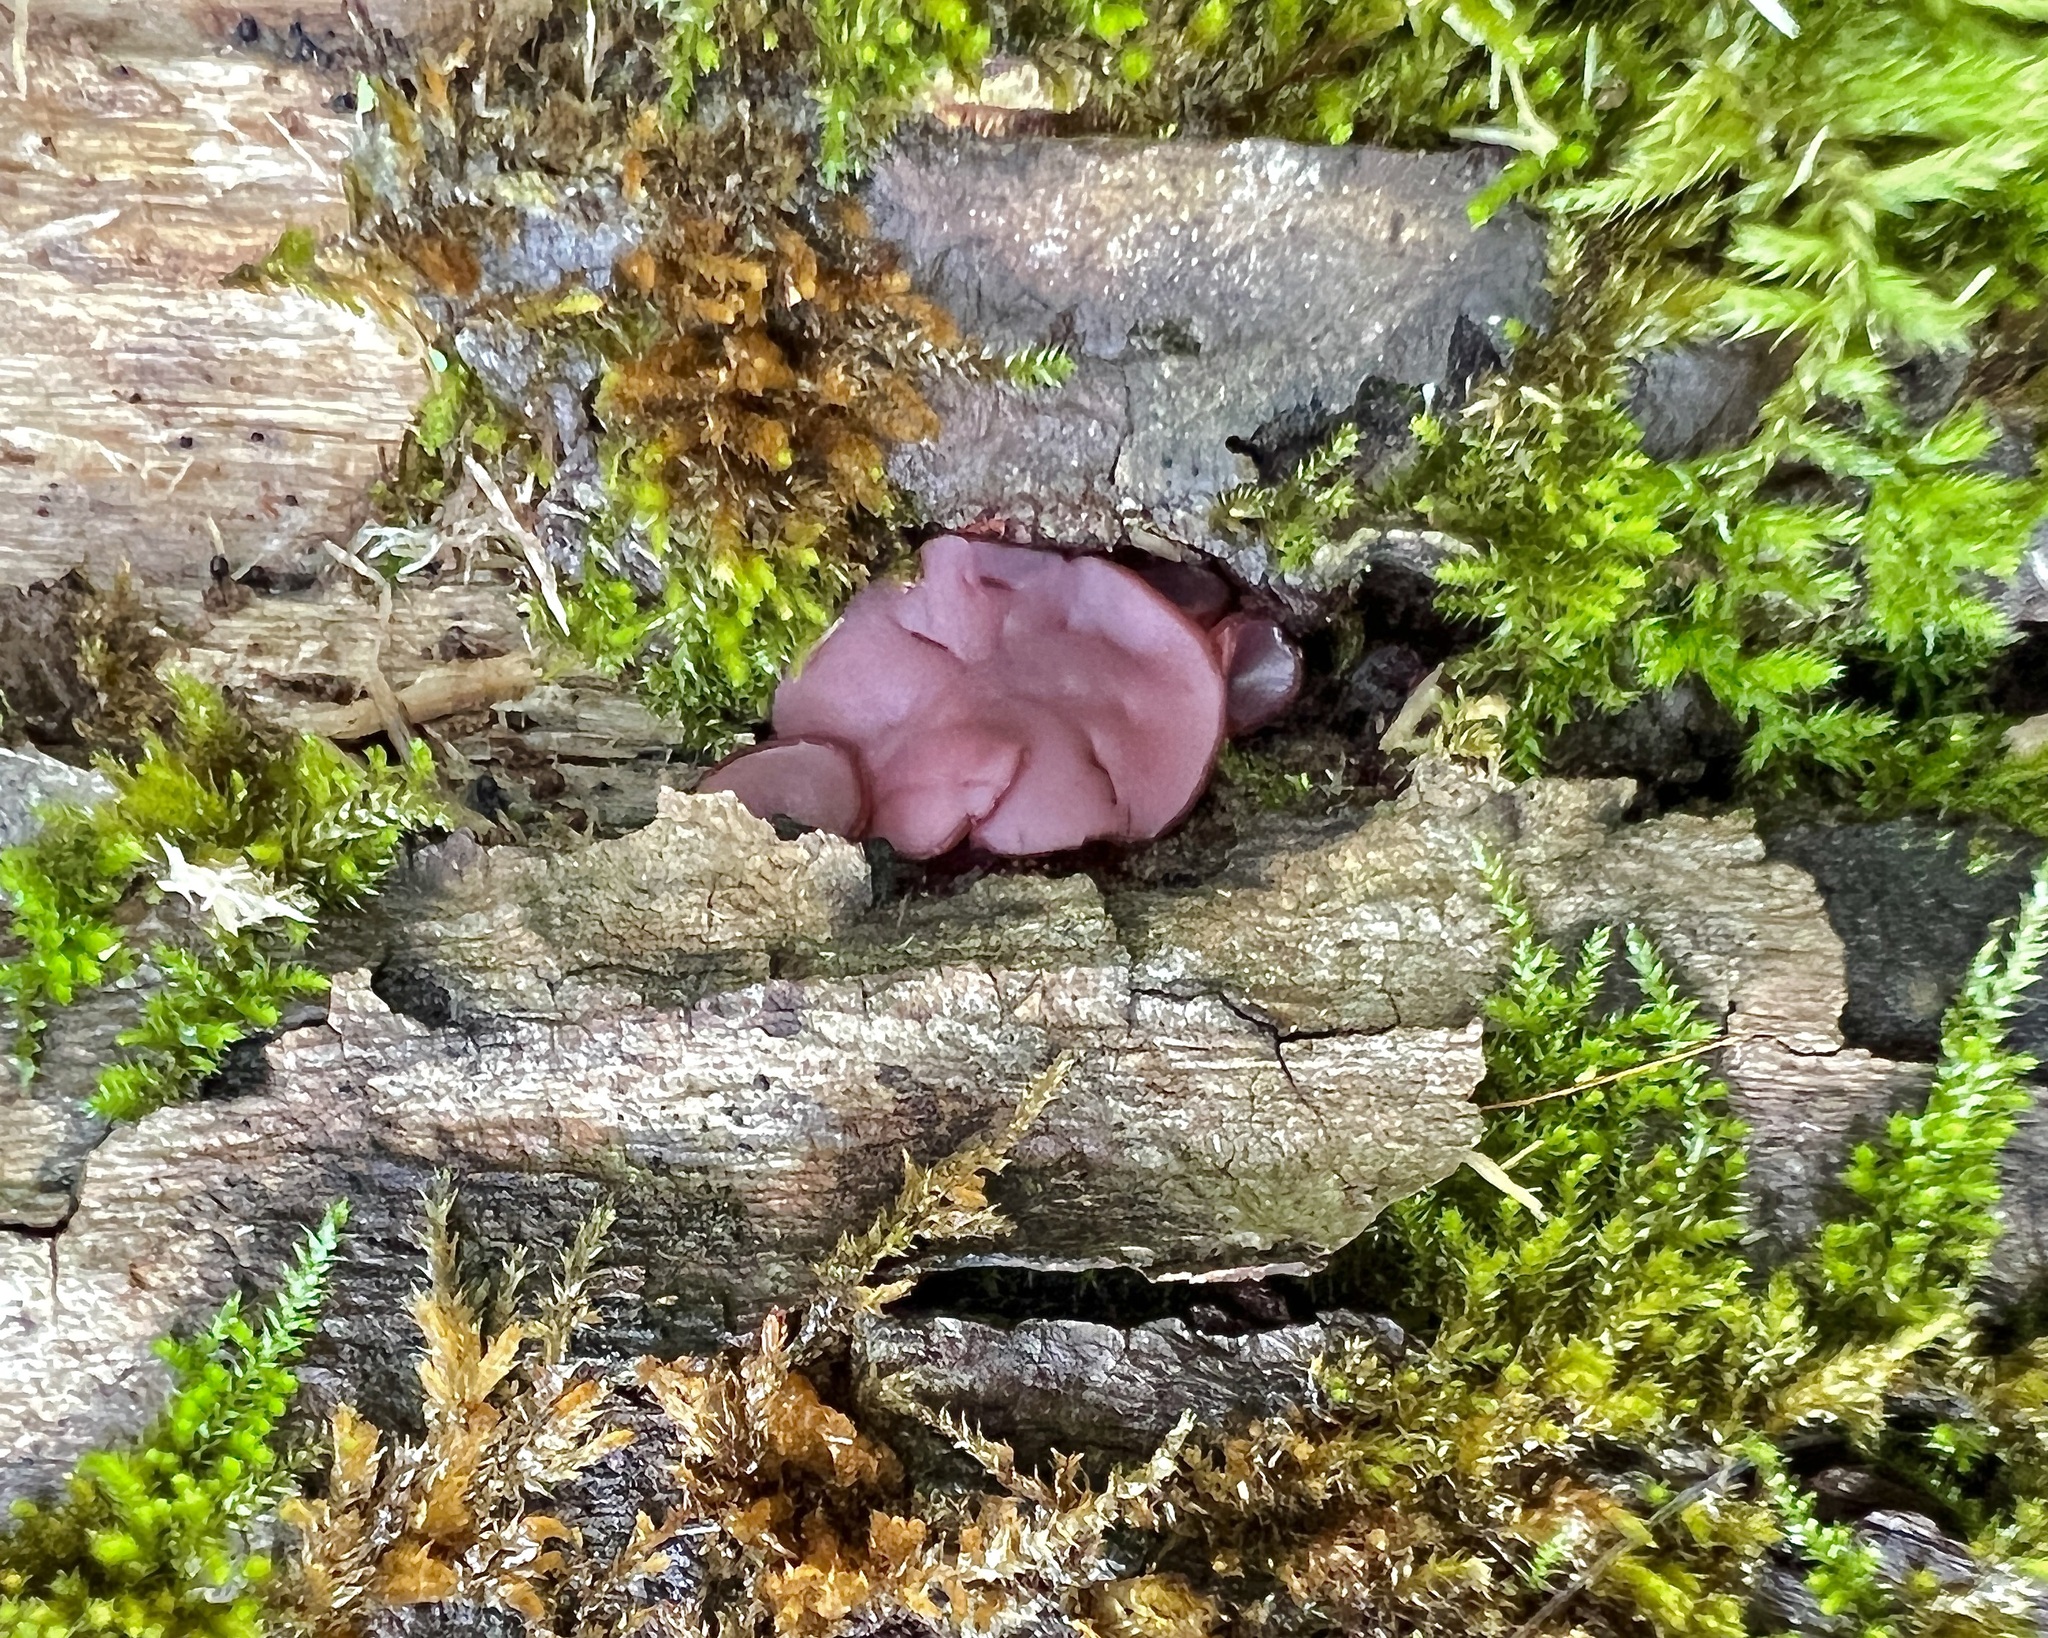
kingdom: Fungi
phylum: Ascomycota
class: Leotiomycetes
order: Helotiales
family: Gelatinodiscaceae
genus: Ascocoryne
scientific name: Ascocoryne cylichnium
